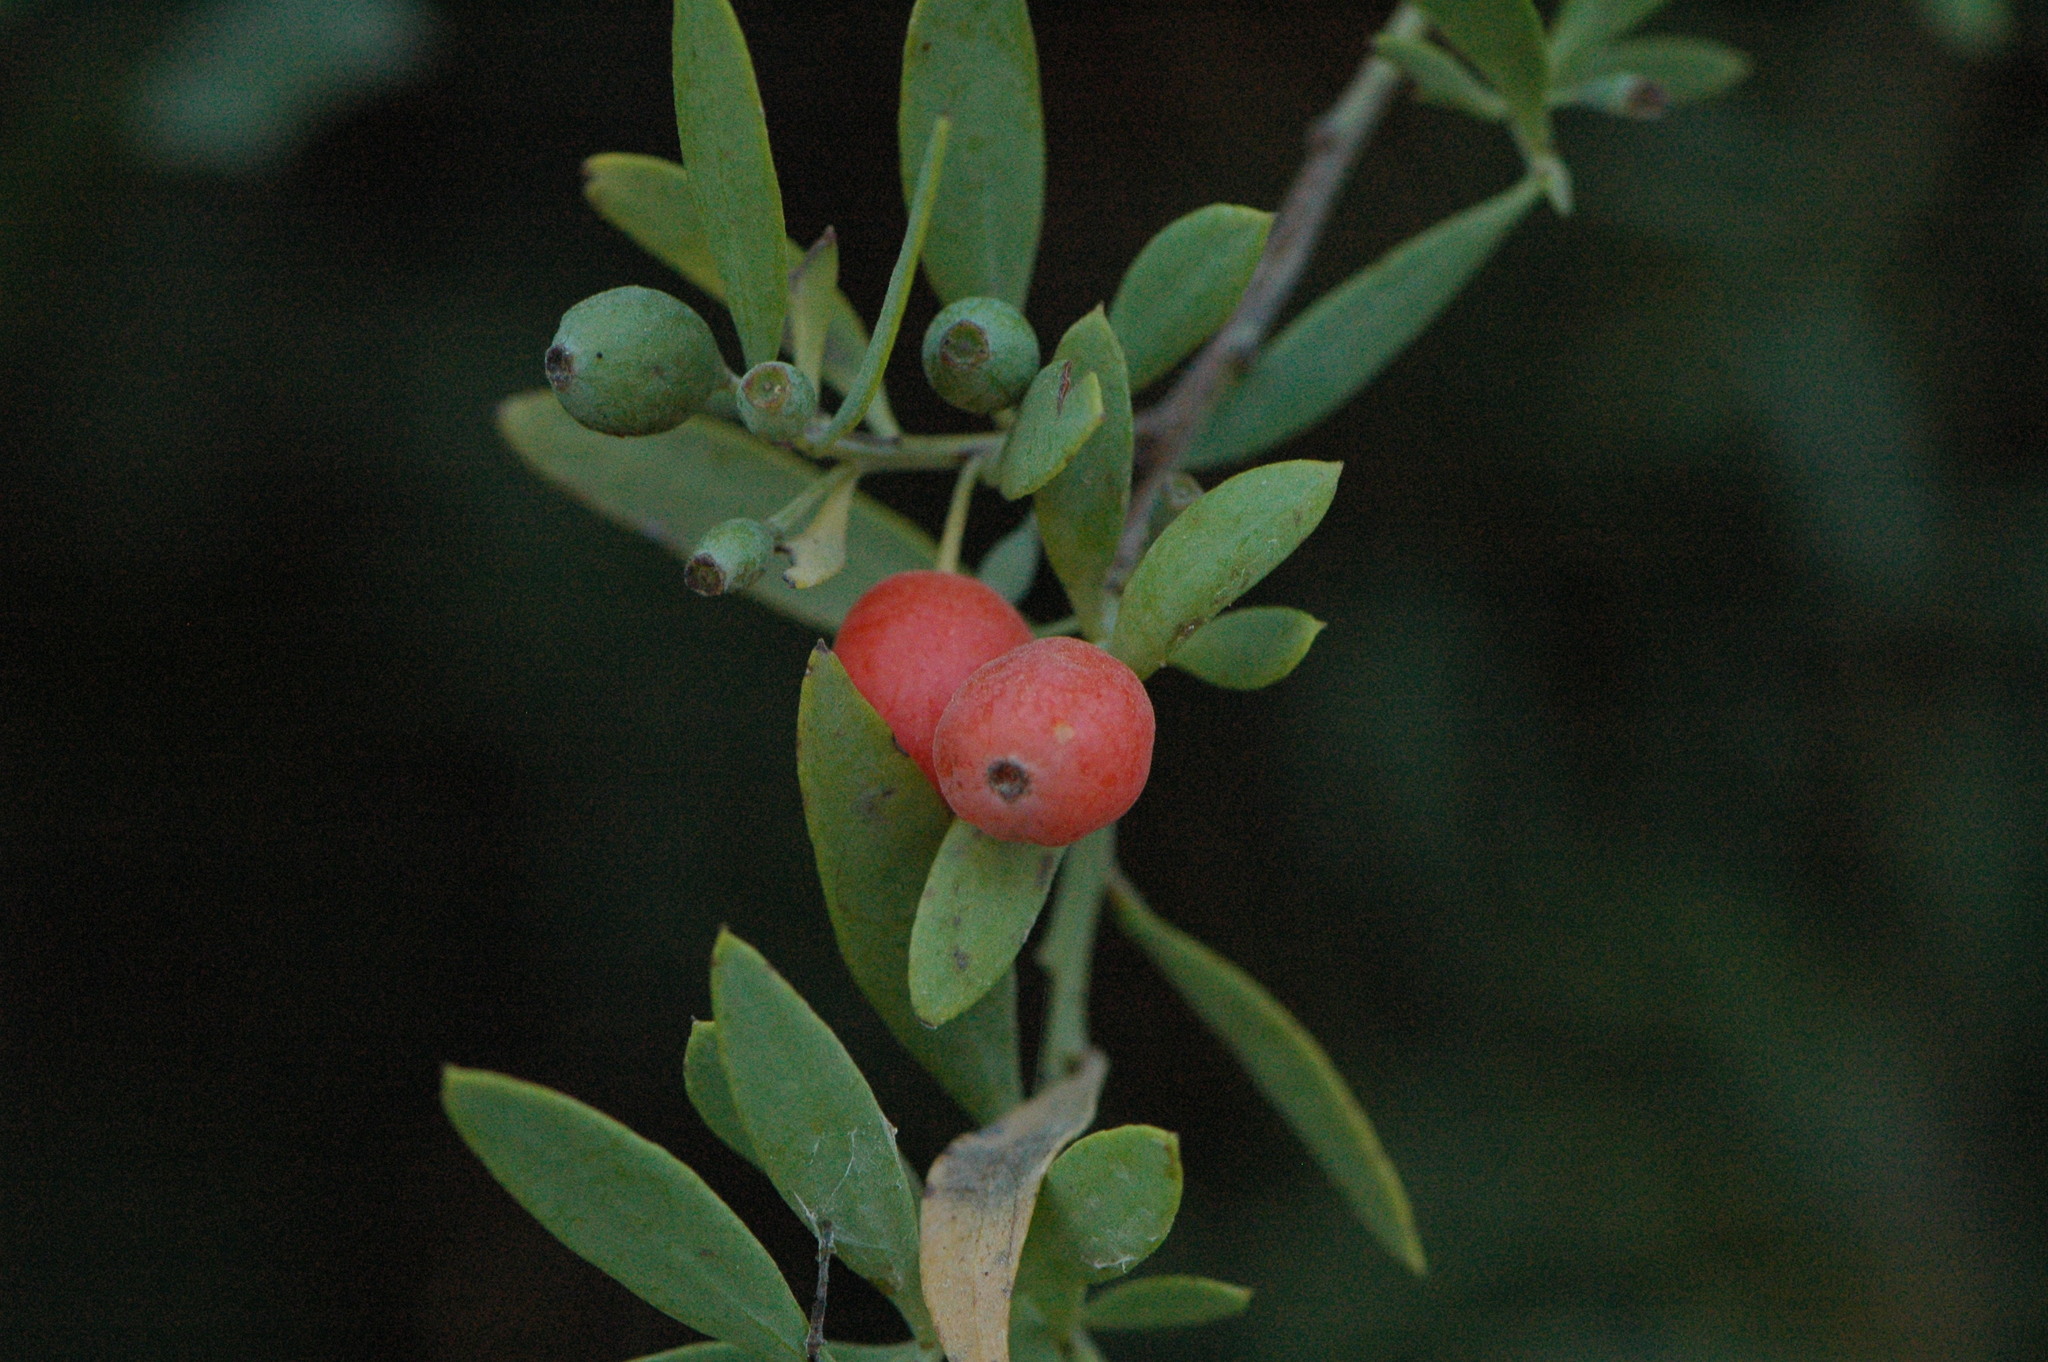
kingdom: Plantae
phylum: Tracheophyta
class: Magnoliopsida
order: Santalales
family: Santalaceae
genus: Osyris
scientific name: Osyris lanceolata
